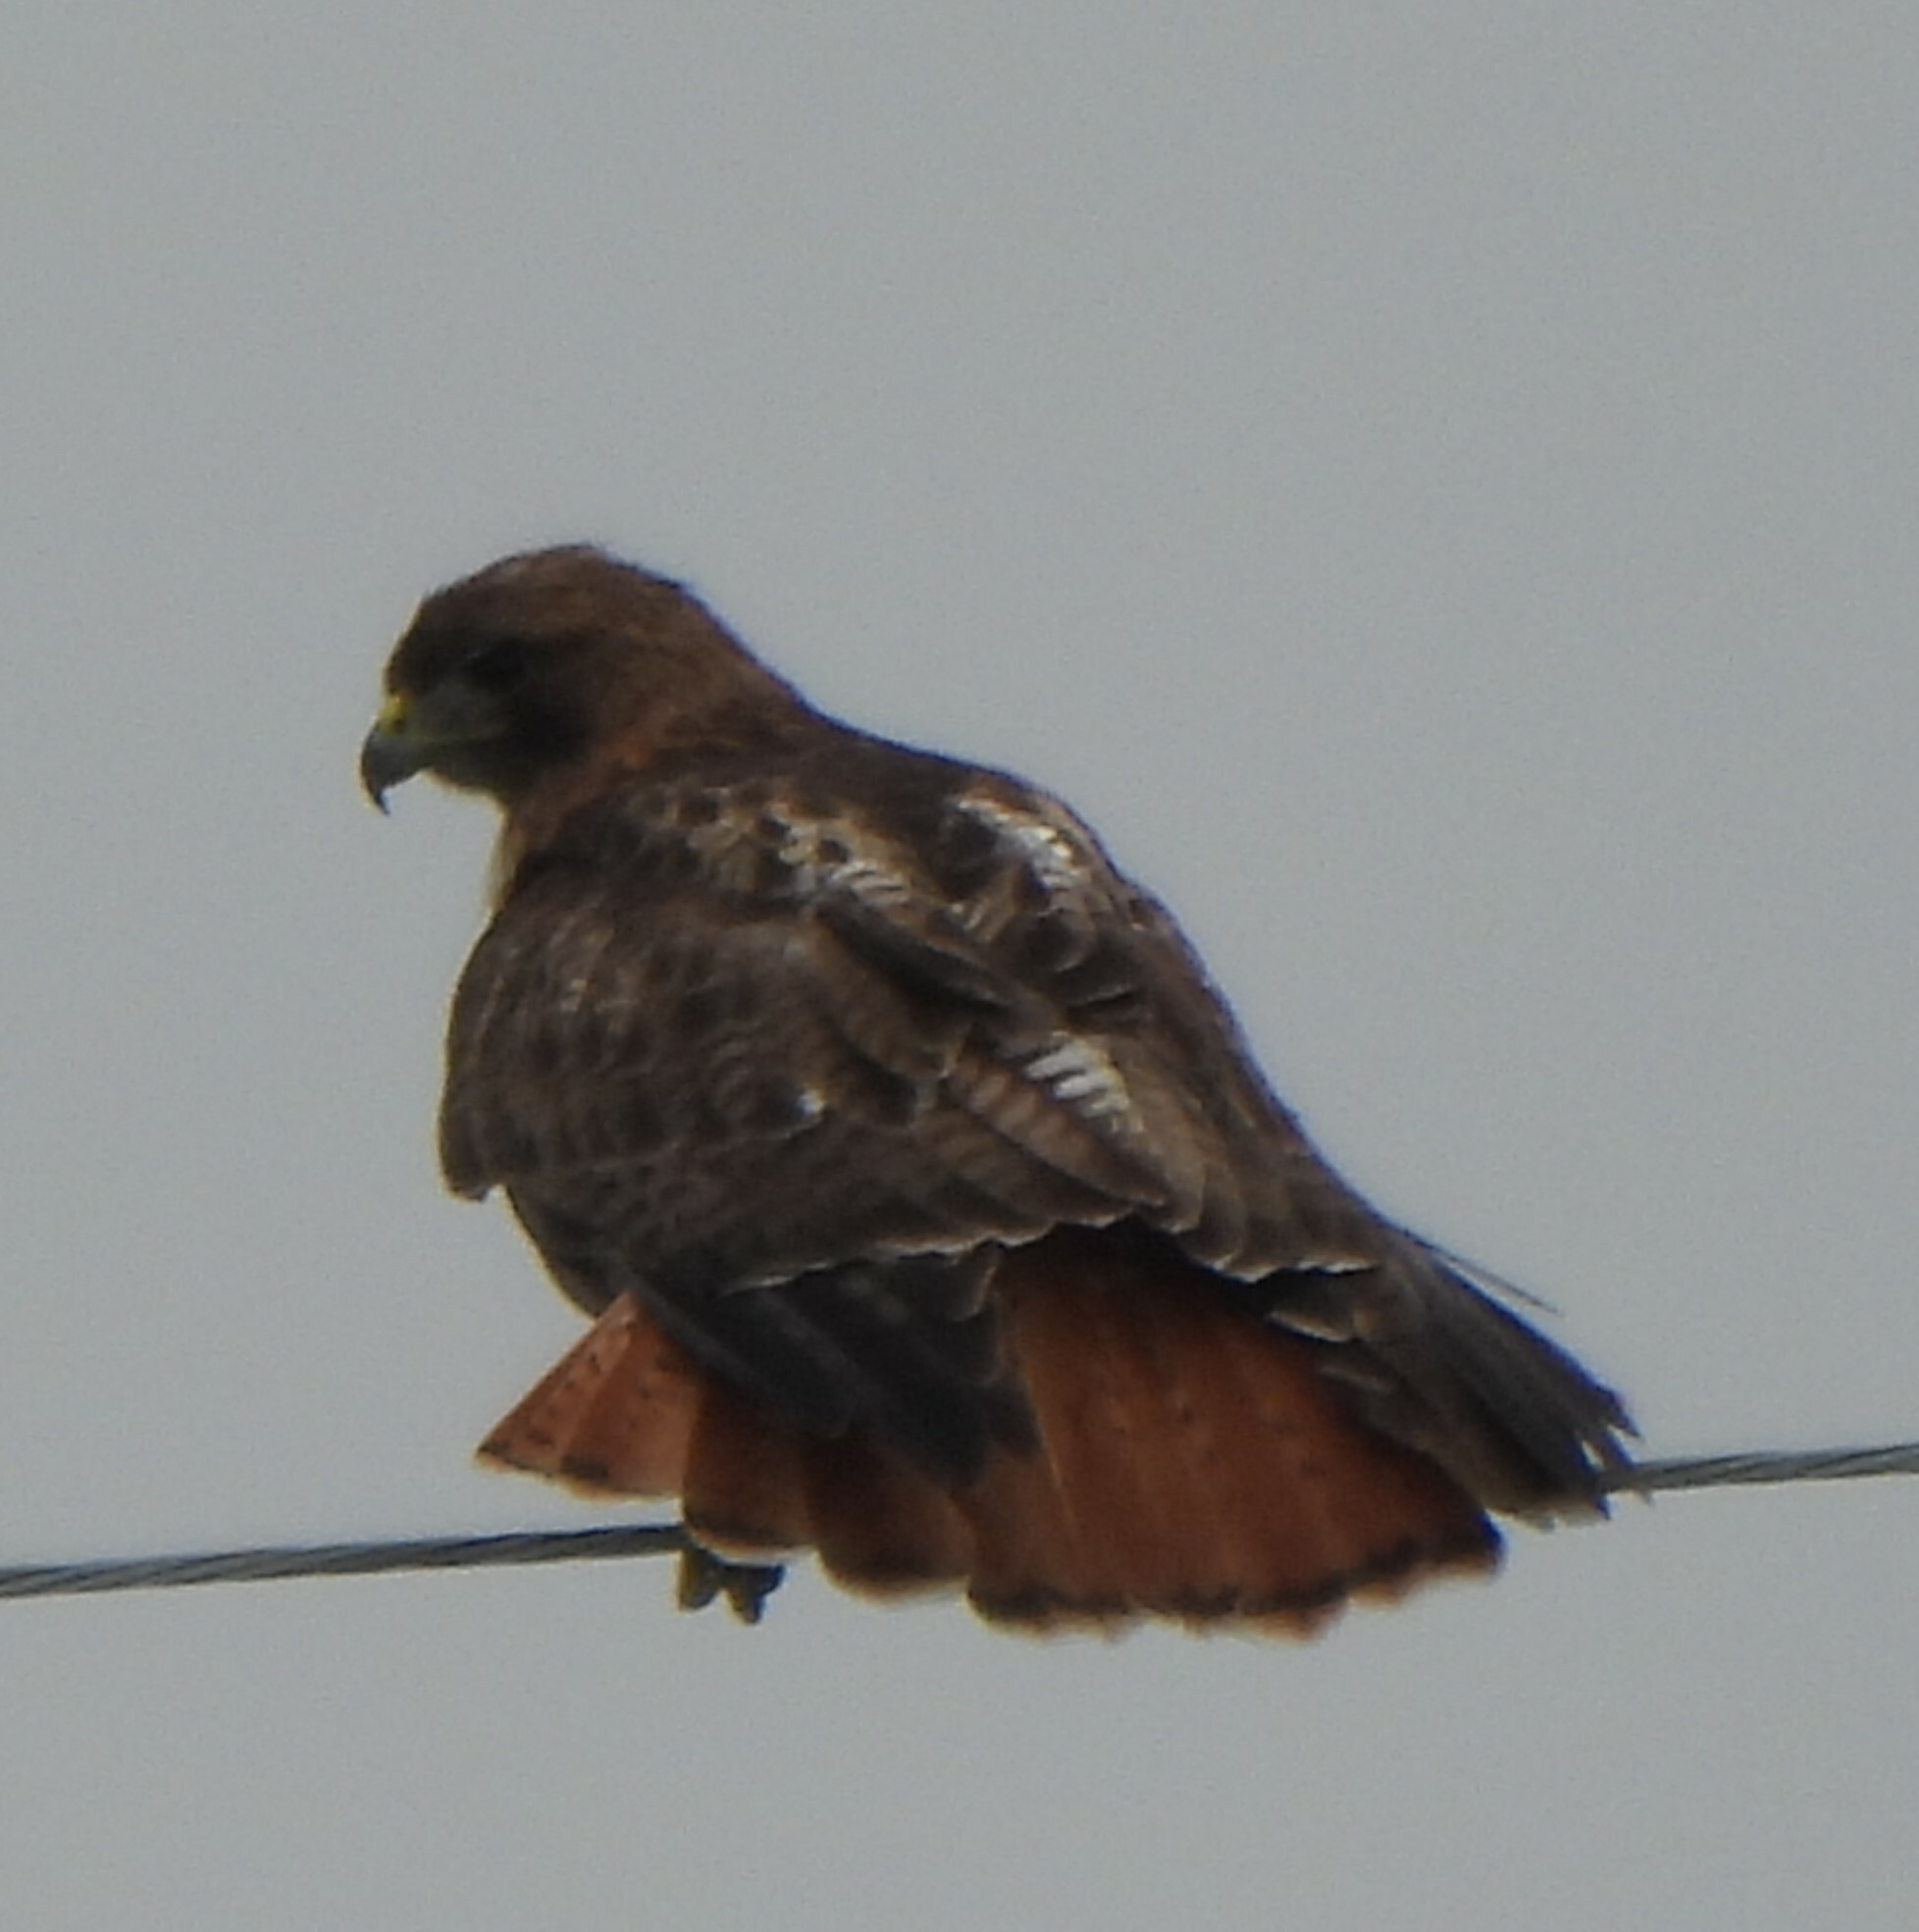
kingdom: Animalia
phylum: Chordata
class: Aves
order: Accipitriformes
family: Accipitridae
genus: Buteo
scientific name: Buteo jamaicensis
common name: Red-tailed hawk
